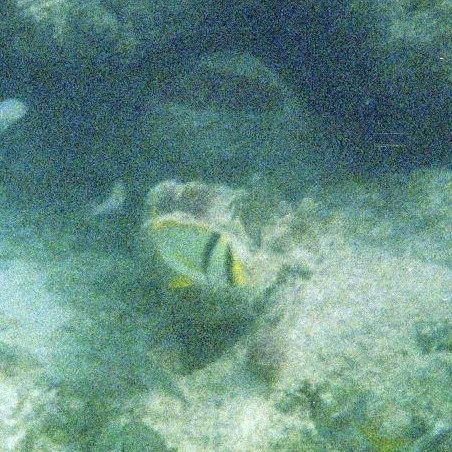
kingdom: Animalia
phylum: Chordata
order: Perciformes
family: Haemulidae
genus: Anisotremus
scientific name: Anisotremus virginicus
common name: Porkfish
